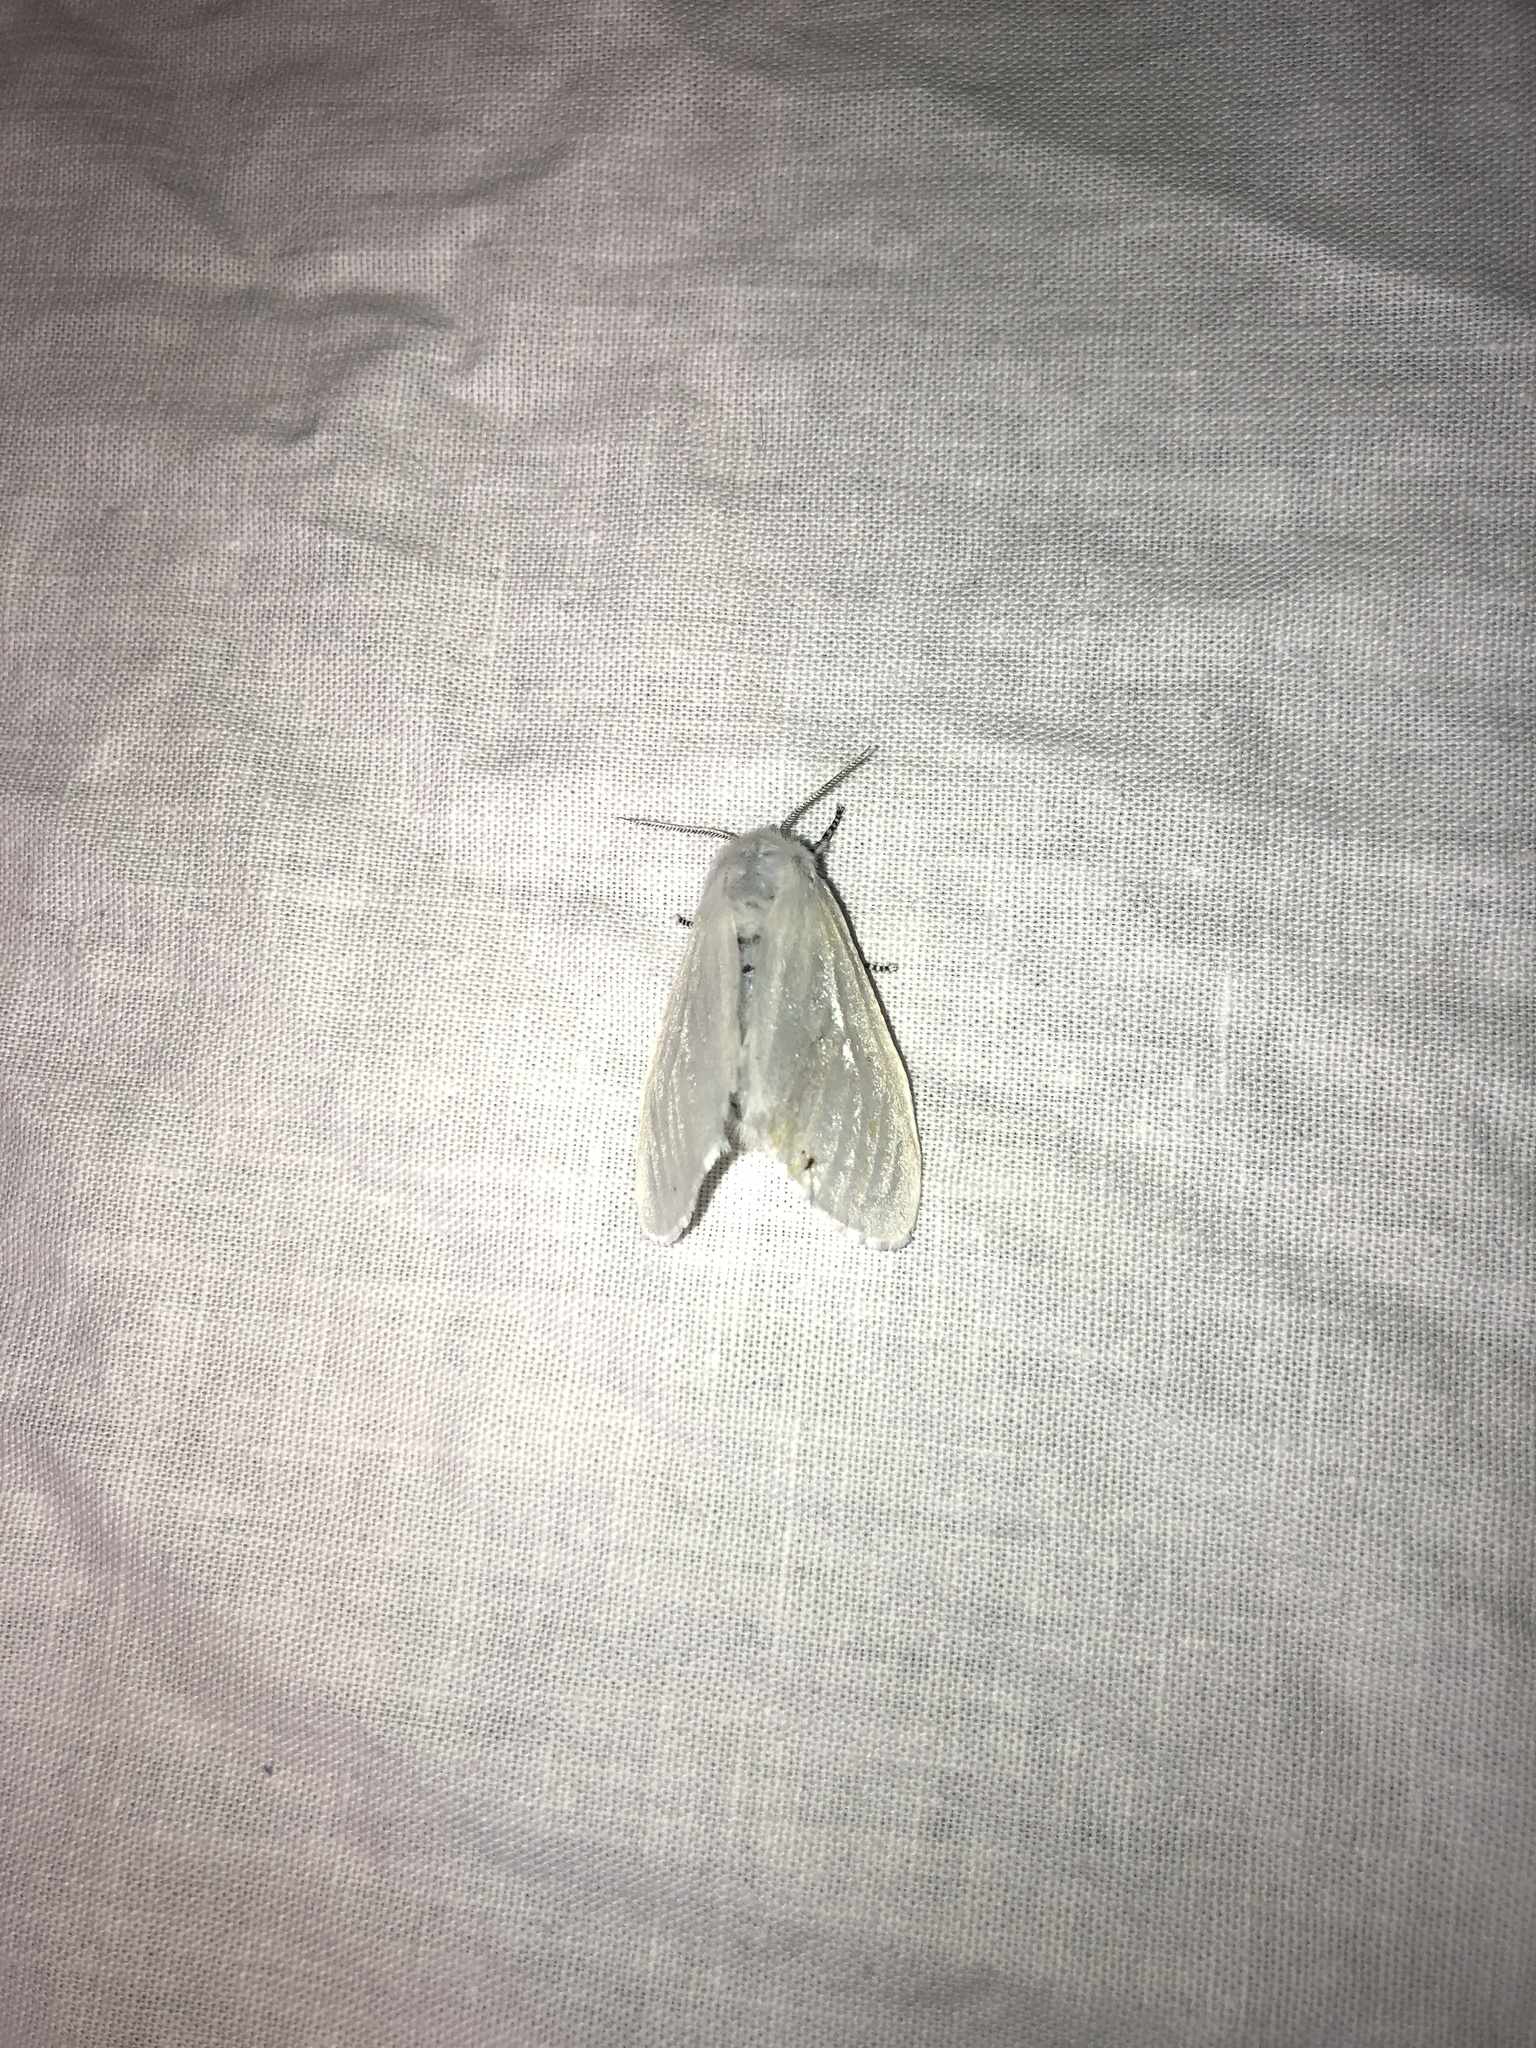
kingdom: Animalia
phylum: Arthropoda
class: Insecta
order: Lepidoptera
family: Erebidae
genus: Leucoma
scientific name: Leucoma salicis
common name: White satin moth
